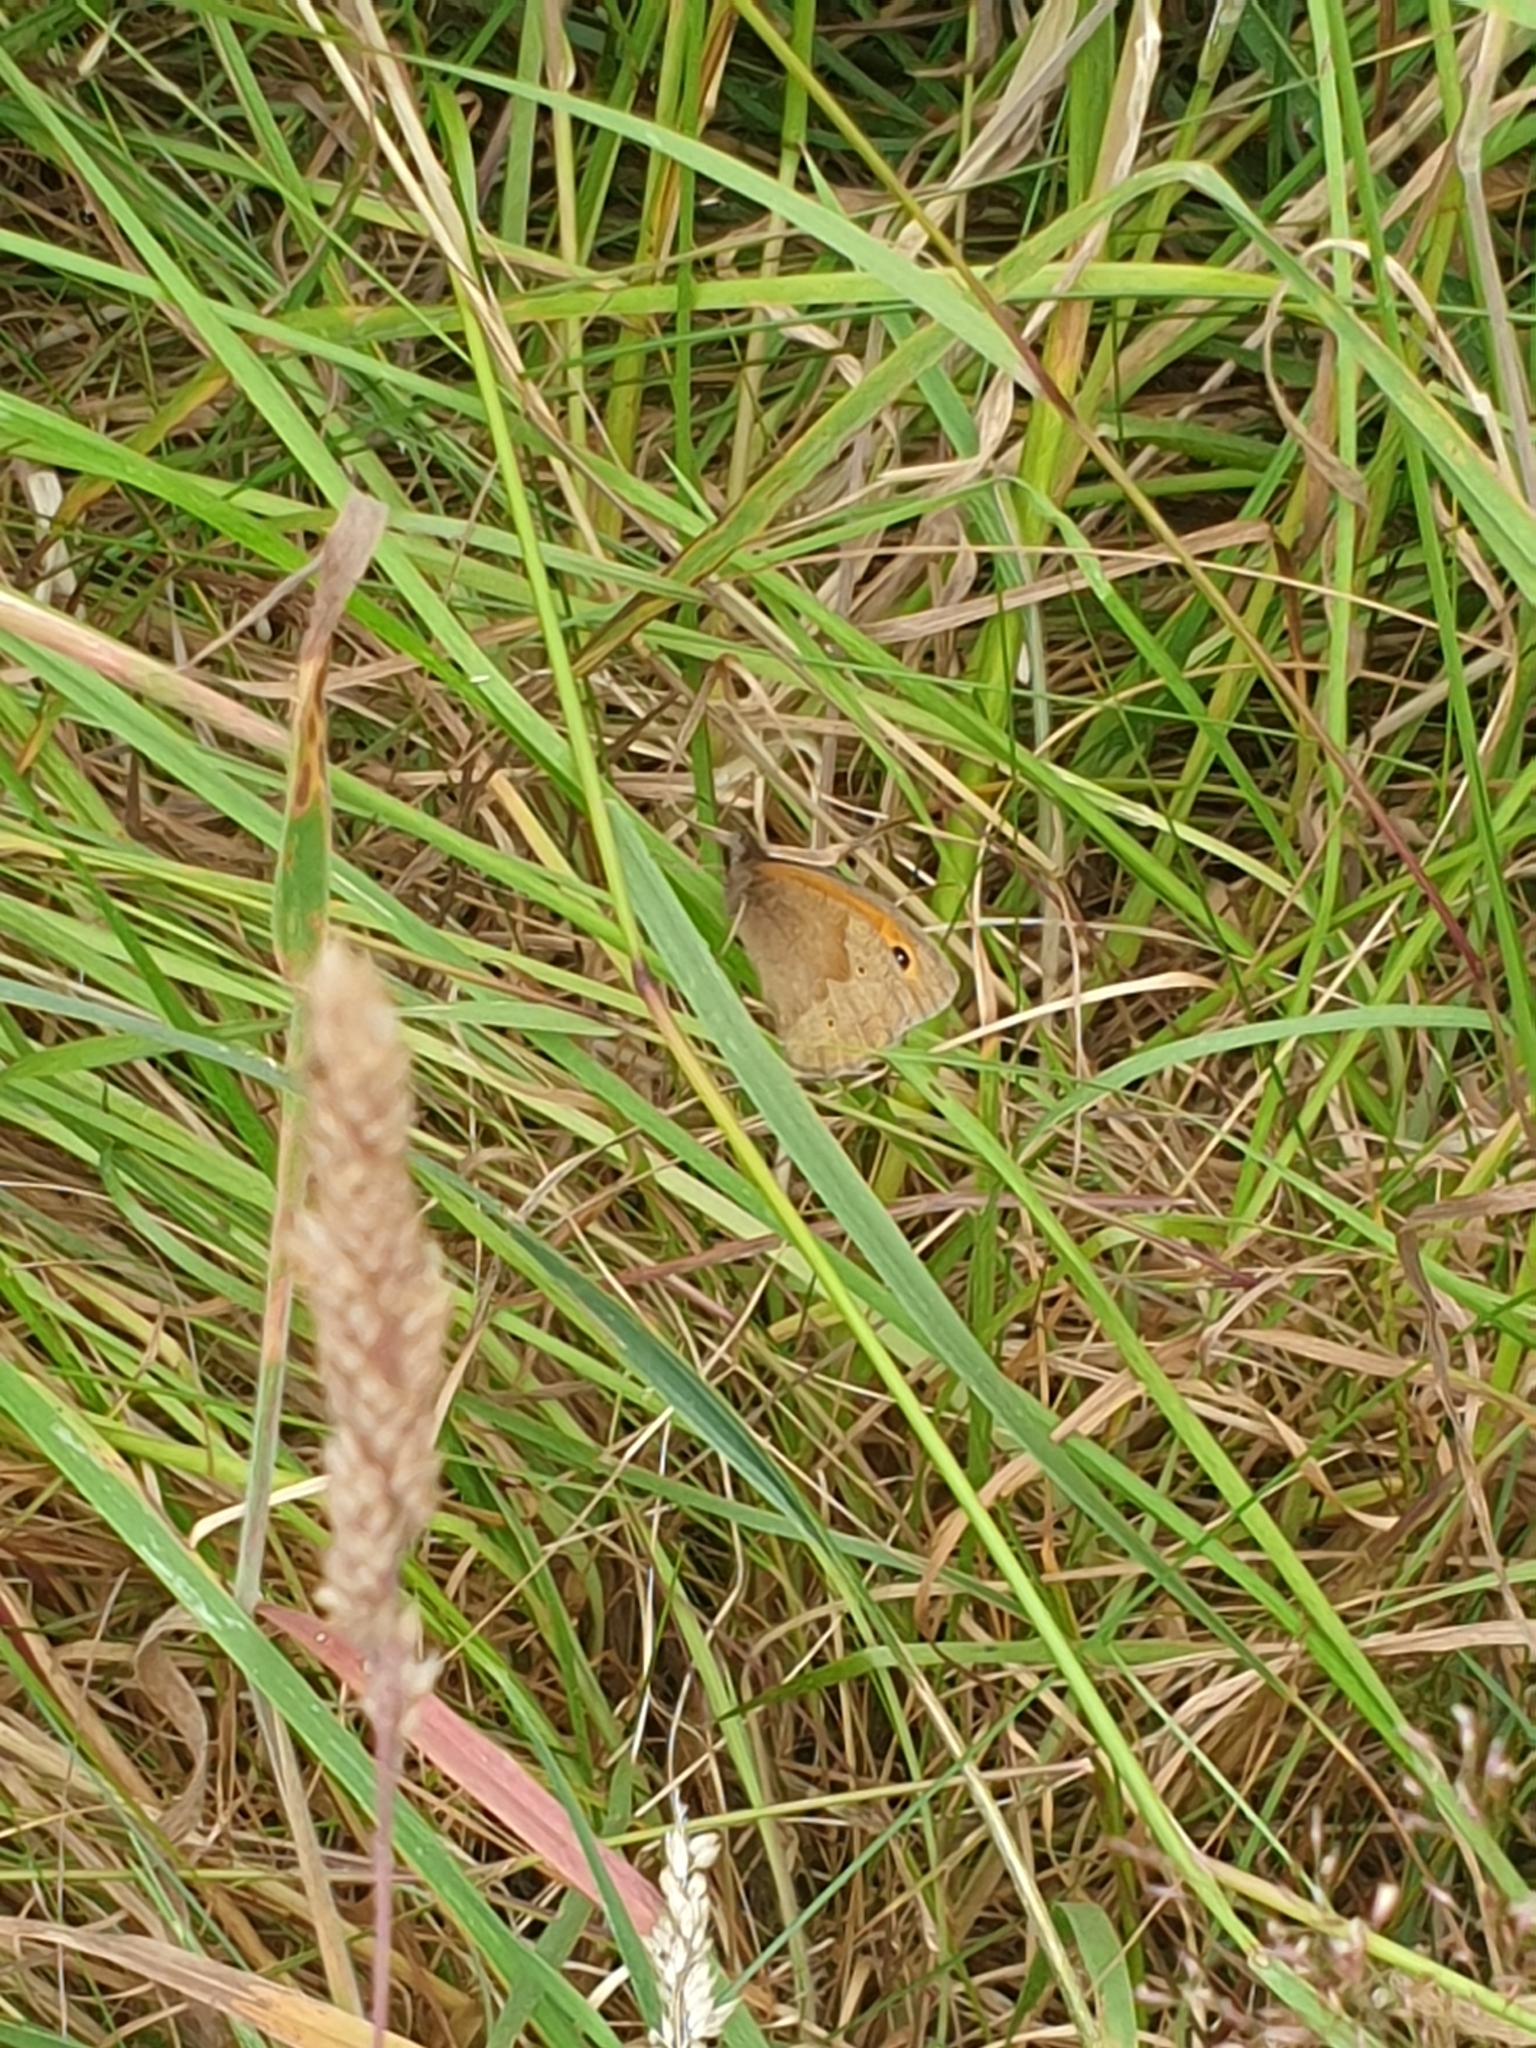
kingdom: Animalia
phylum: Arthropoda
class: Insecta
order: Lepidoptera
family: Nymphalidae
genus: Maniola
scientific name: Maniola jurtina
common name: Meadow brown
